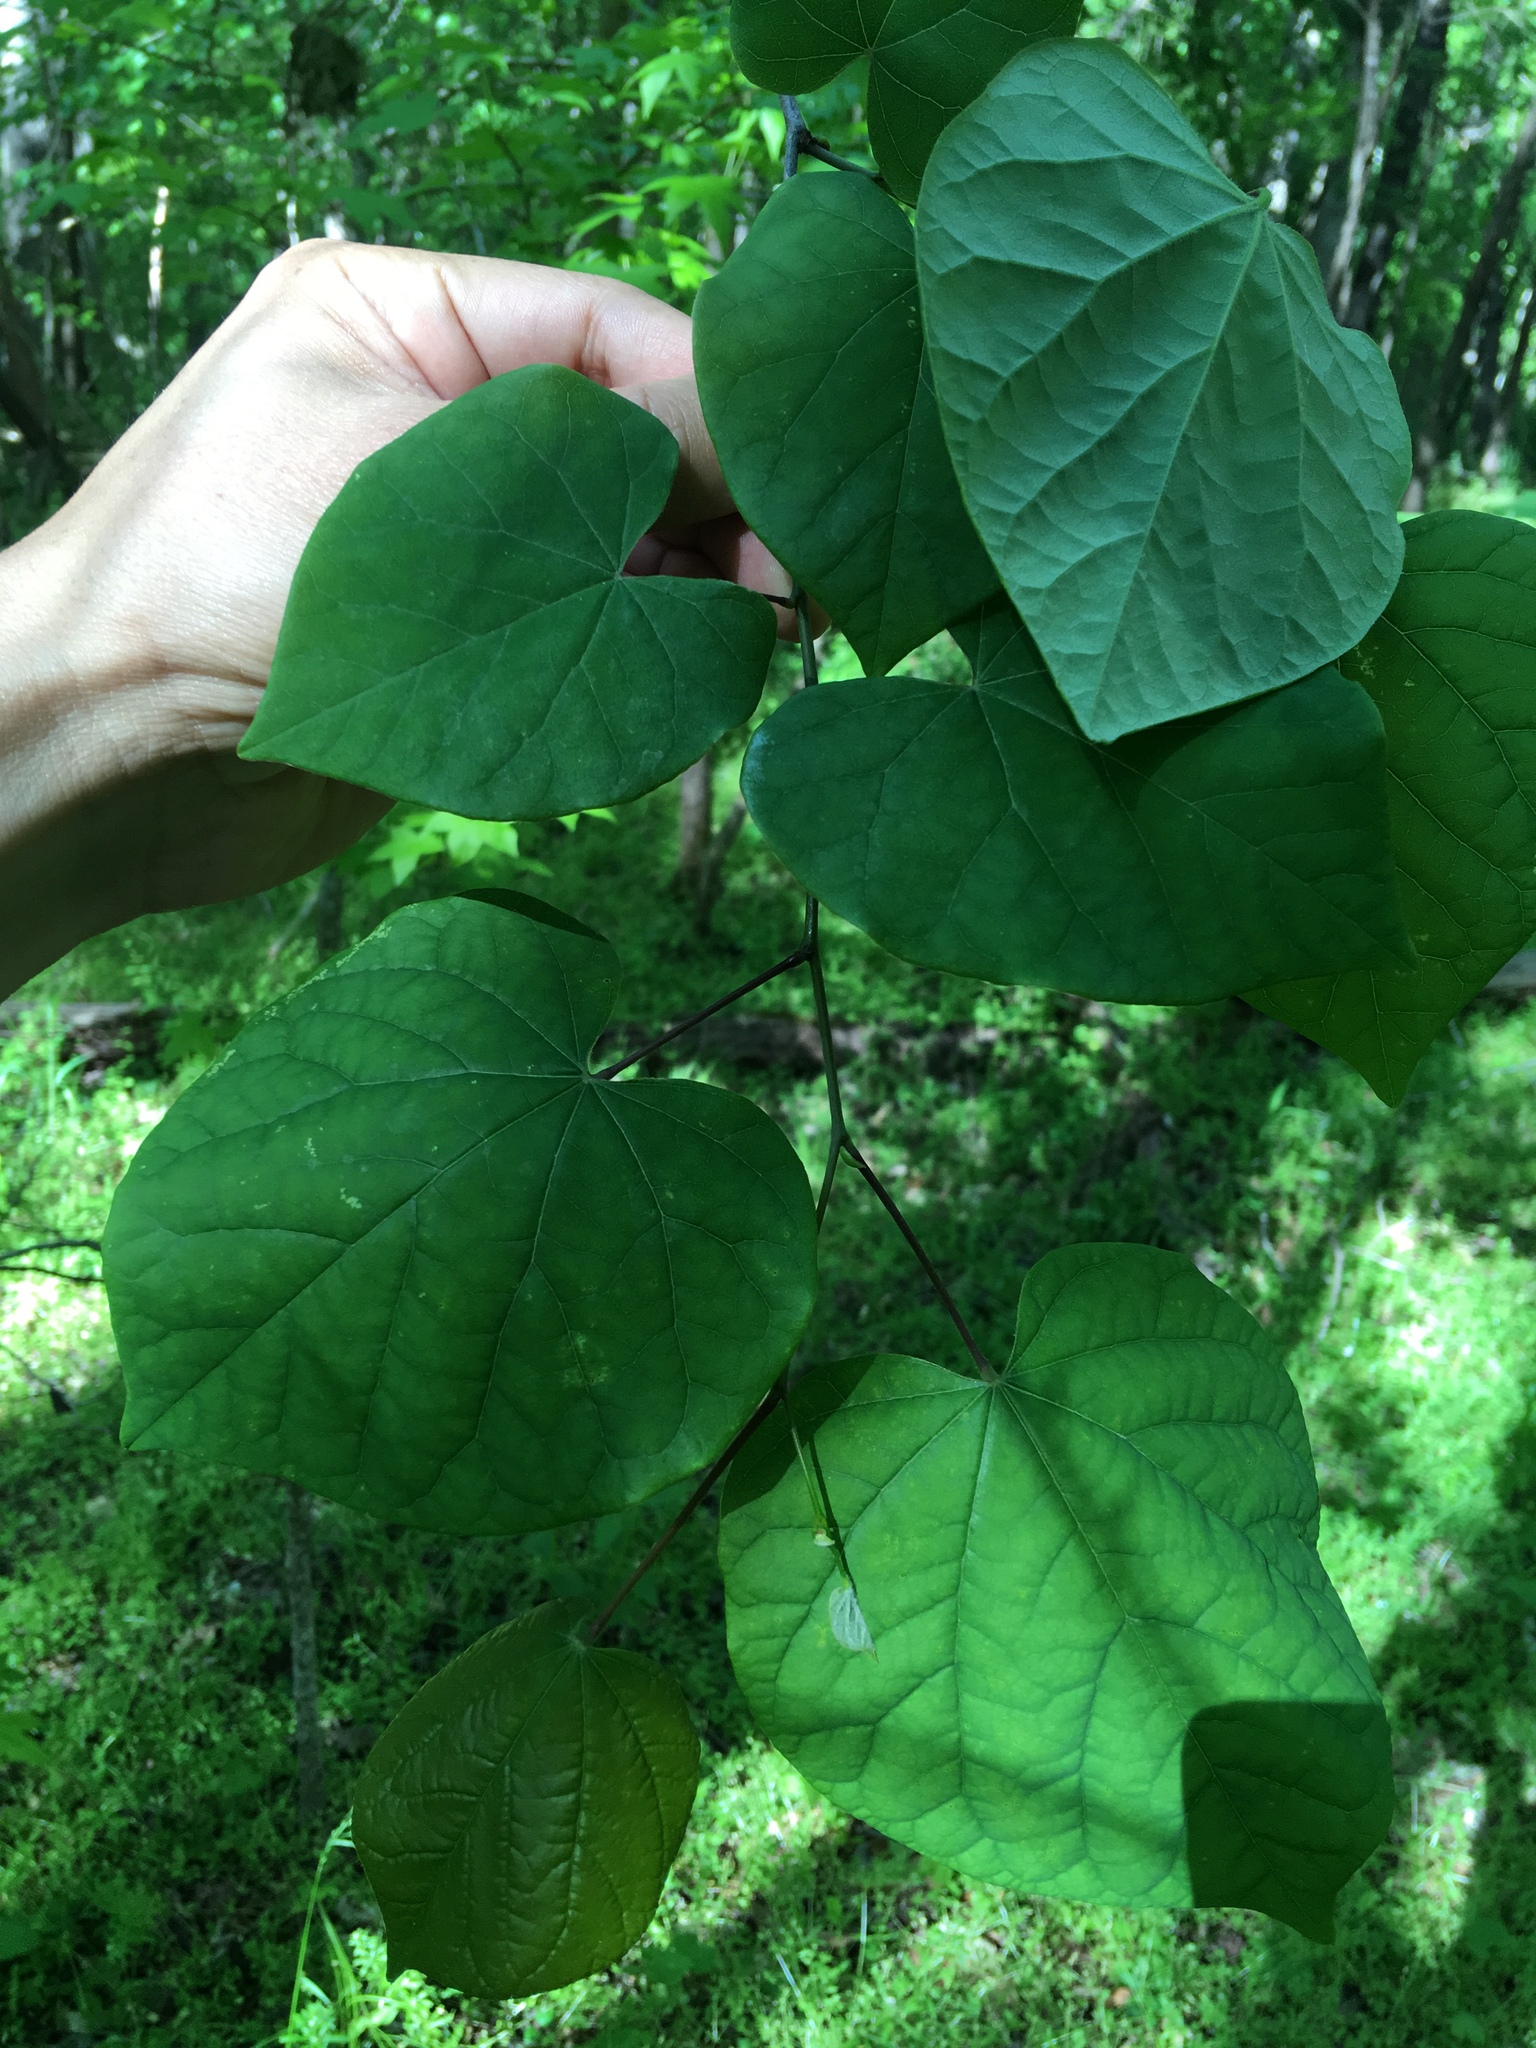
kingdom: Plantae
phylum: Tracheophyta
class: Magnoliopsida
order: Fabales
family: Fabaceae
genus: Cercis
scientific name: Cercis canadensis
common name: Eastern redbud
